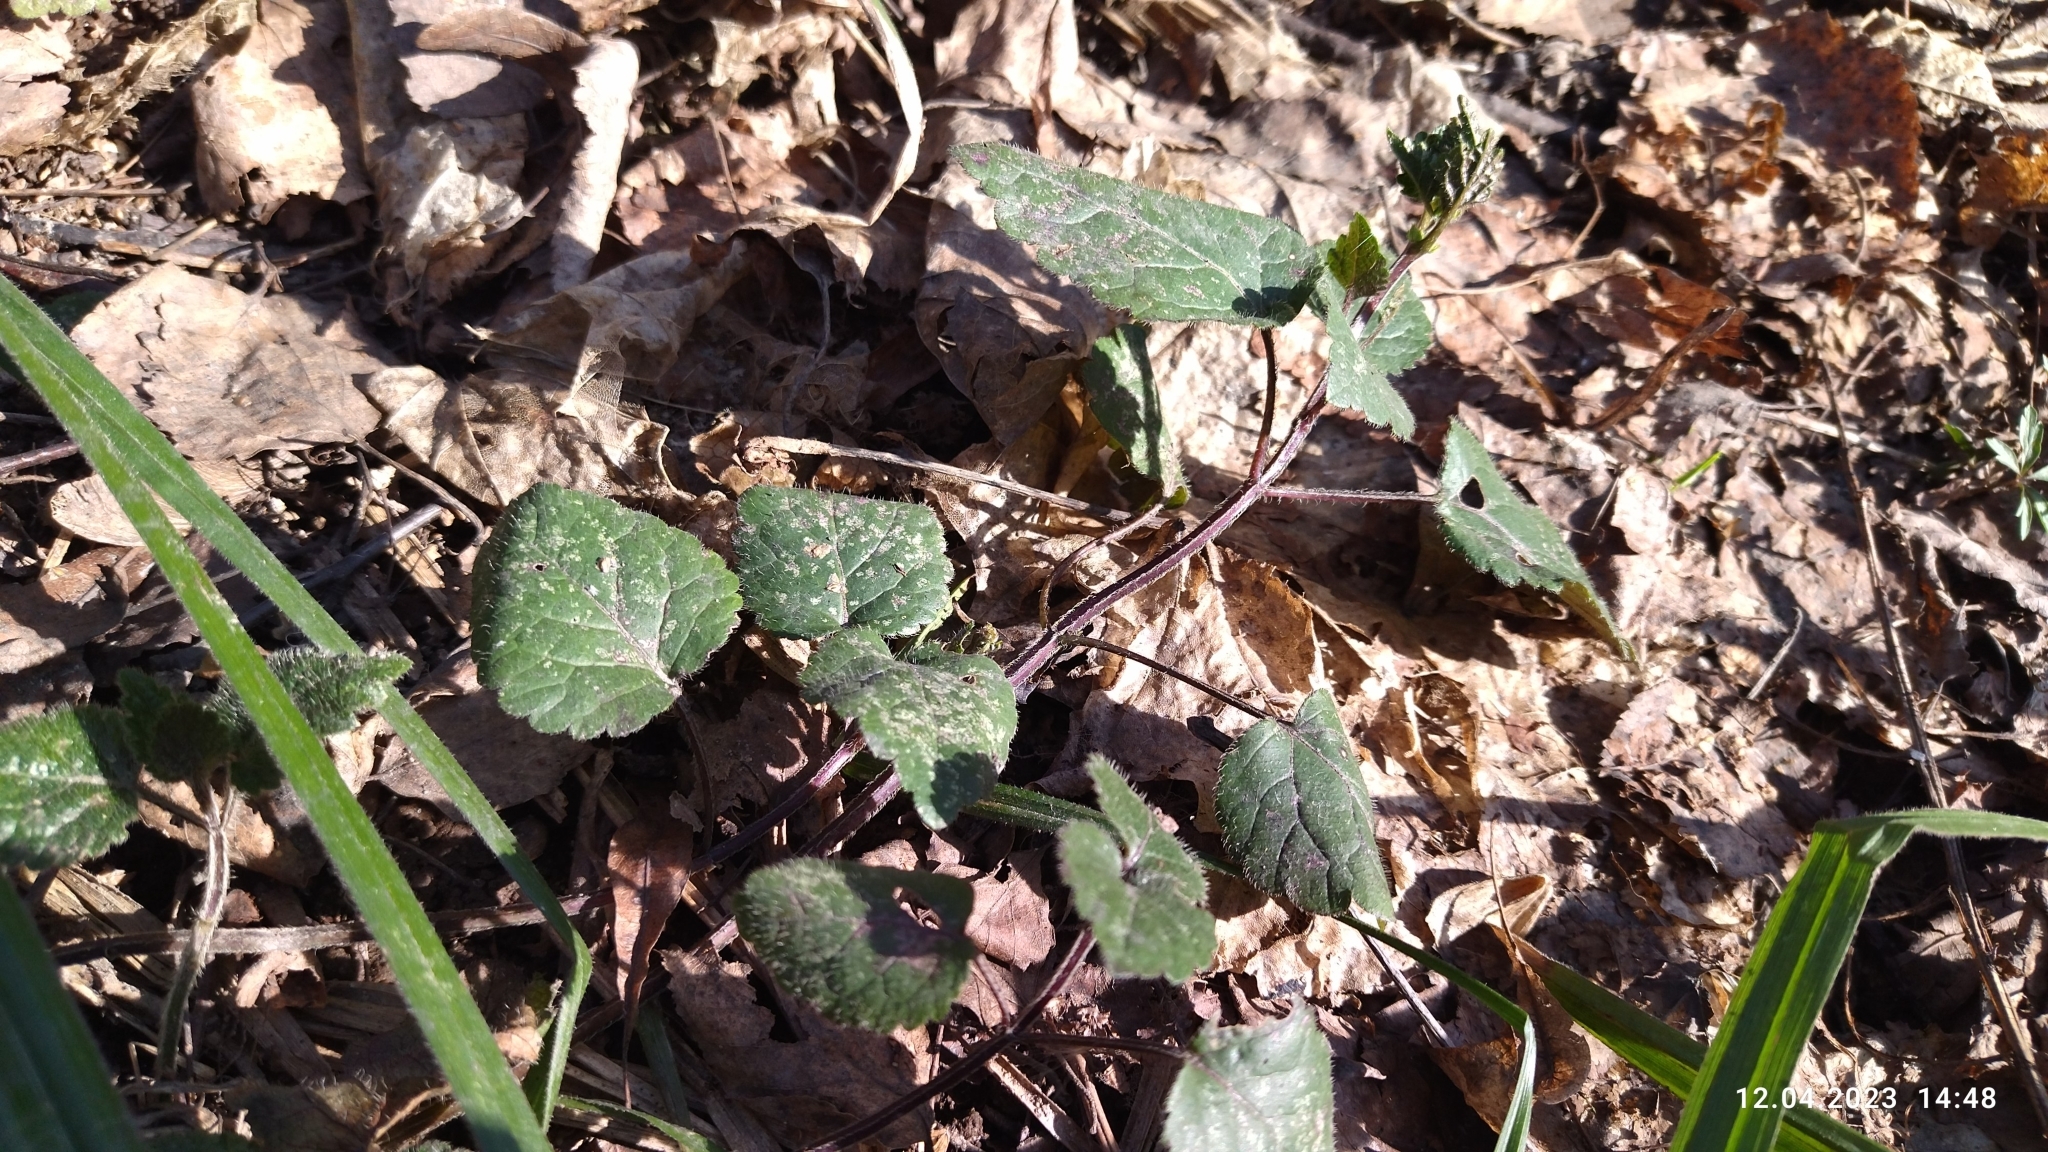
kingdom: Plantae
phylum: Tracheophyta
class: Magnoliopsida
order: Lamiales
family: Lamiaceae
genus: Lamium
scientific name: Lamium galeobdolon
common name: Yellow archangel
